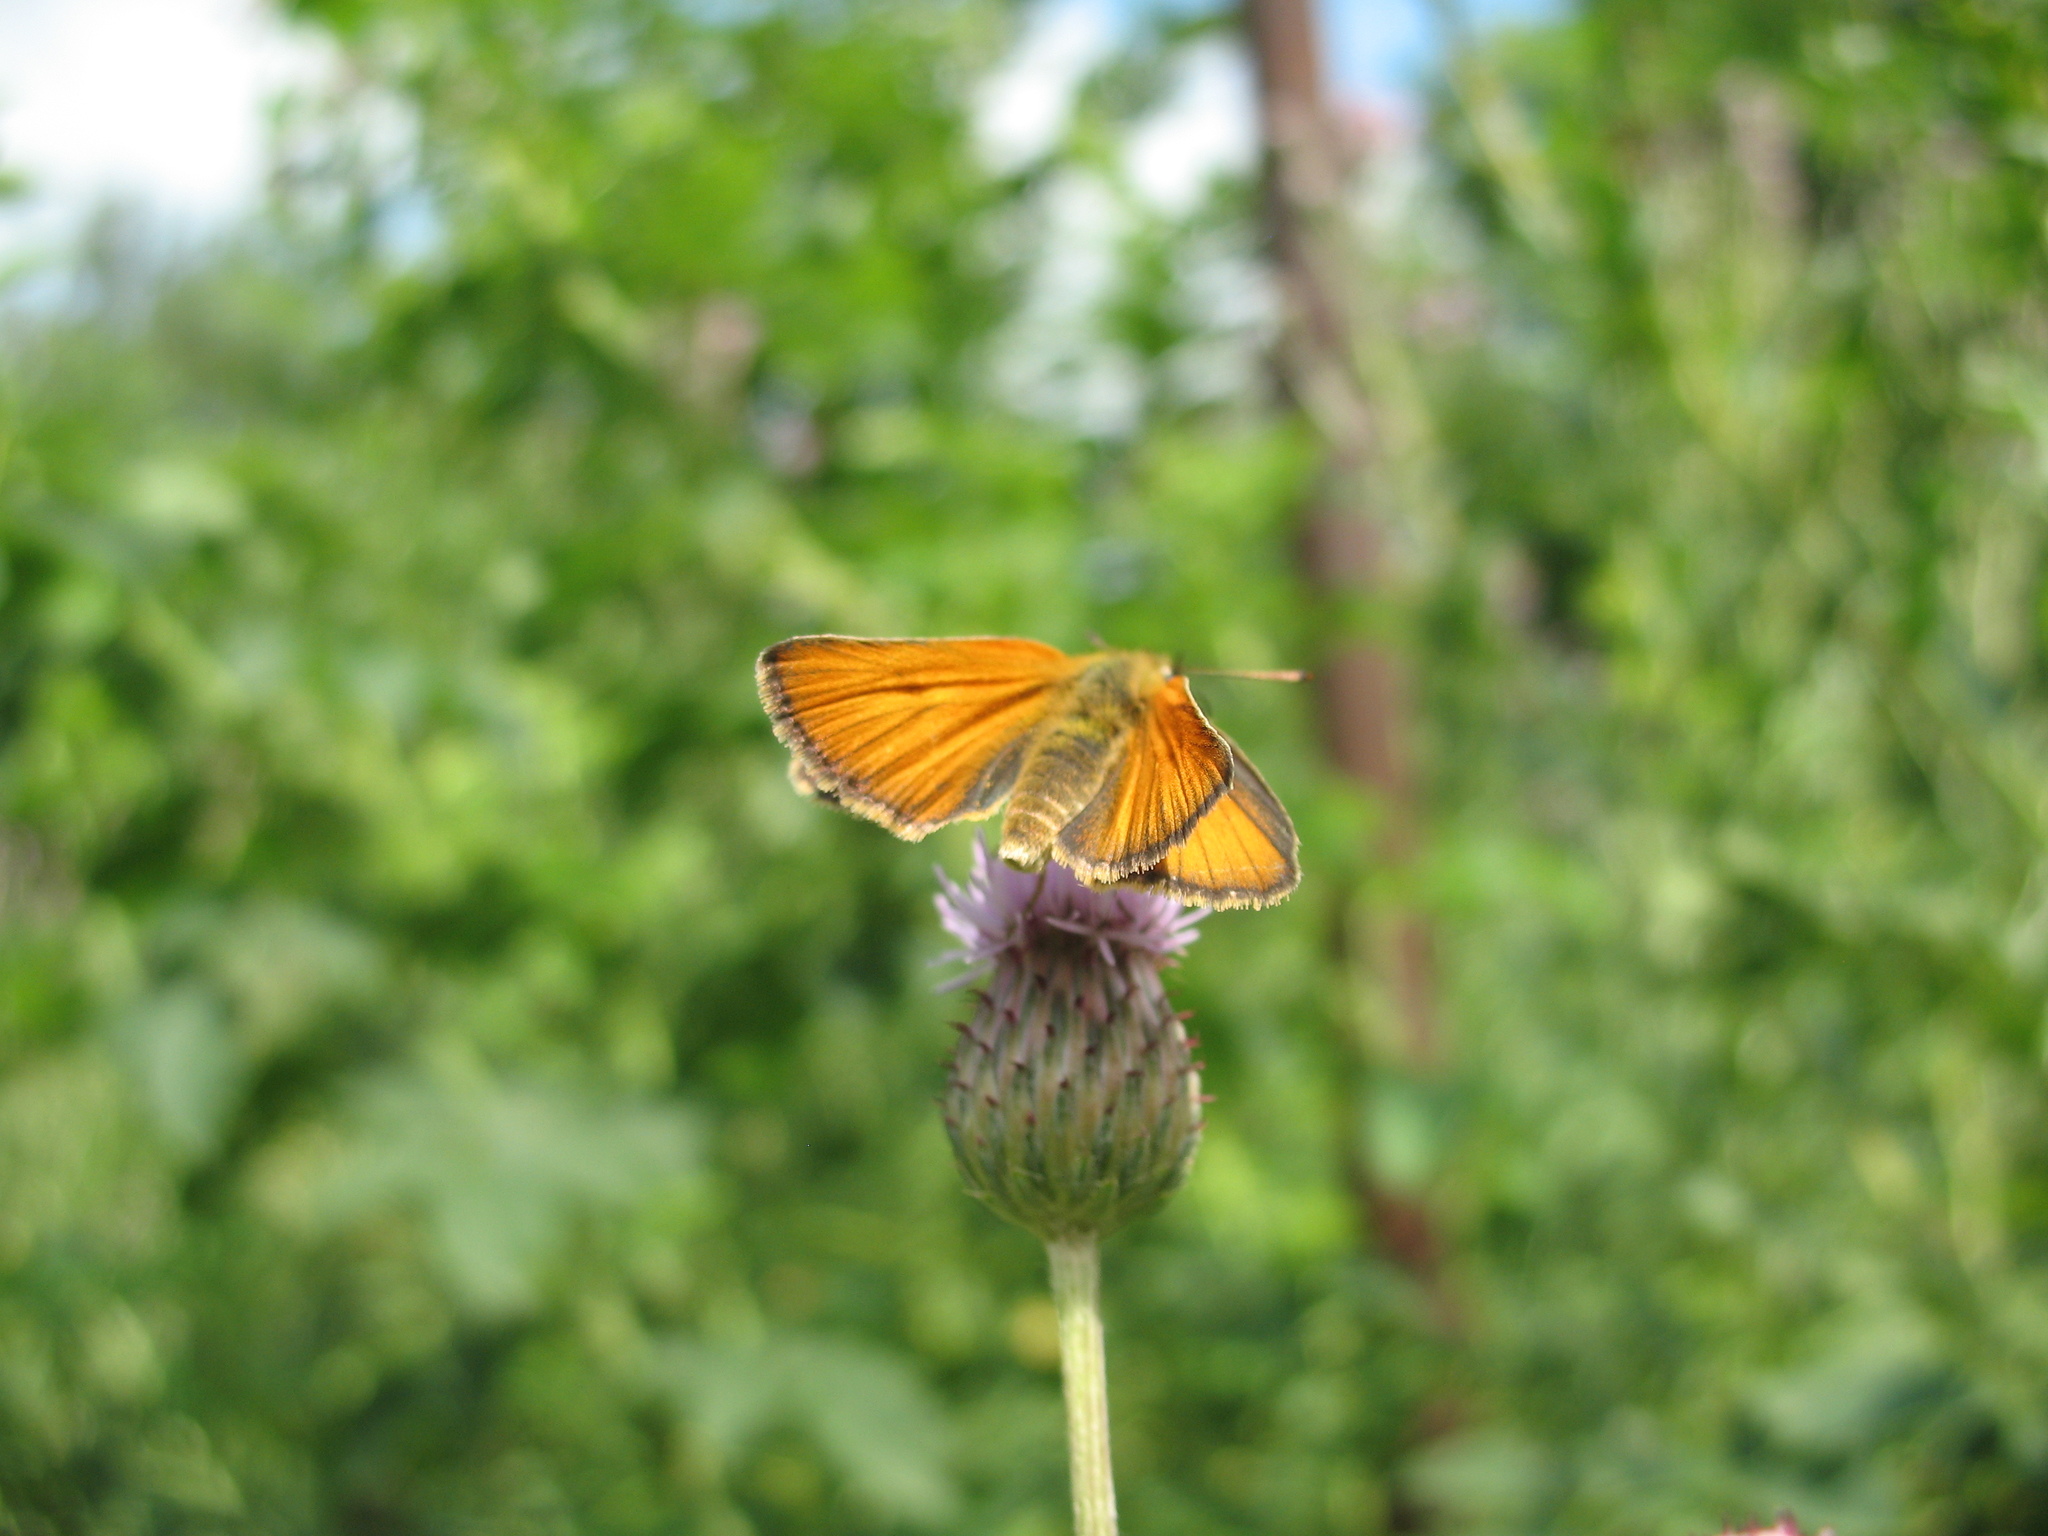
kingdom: Animalia
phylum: Arthropoda
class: Insecta
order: Lepidoptera
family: Hesperiidae
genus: Thymelicus
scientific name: Thymelicus sylvestris
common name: Small skipper
